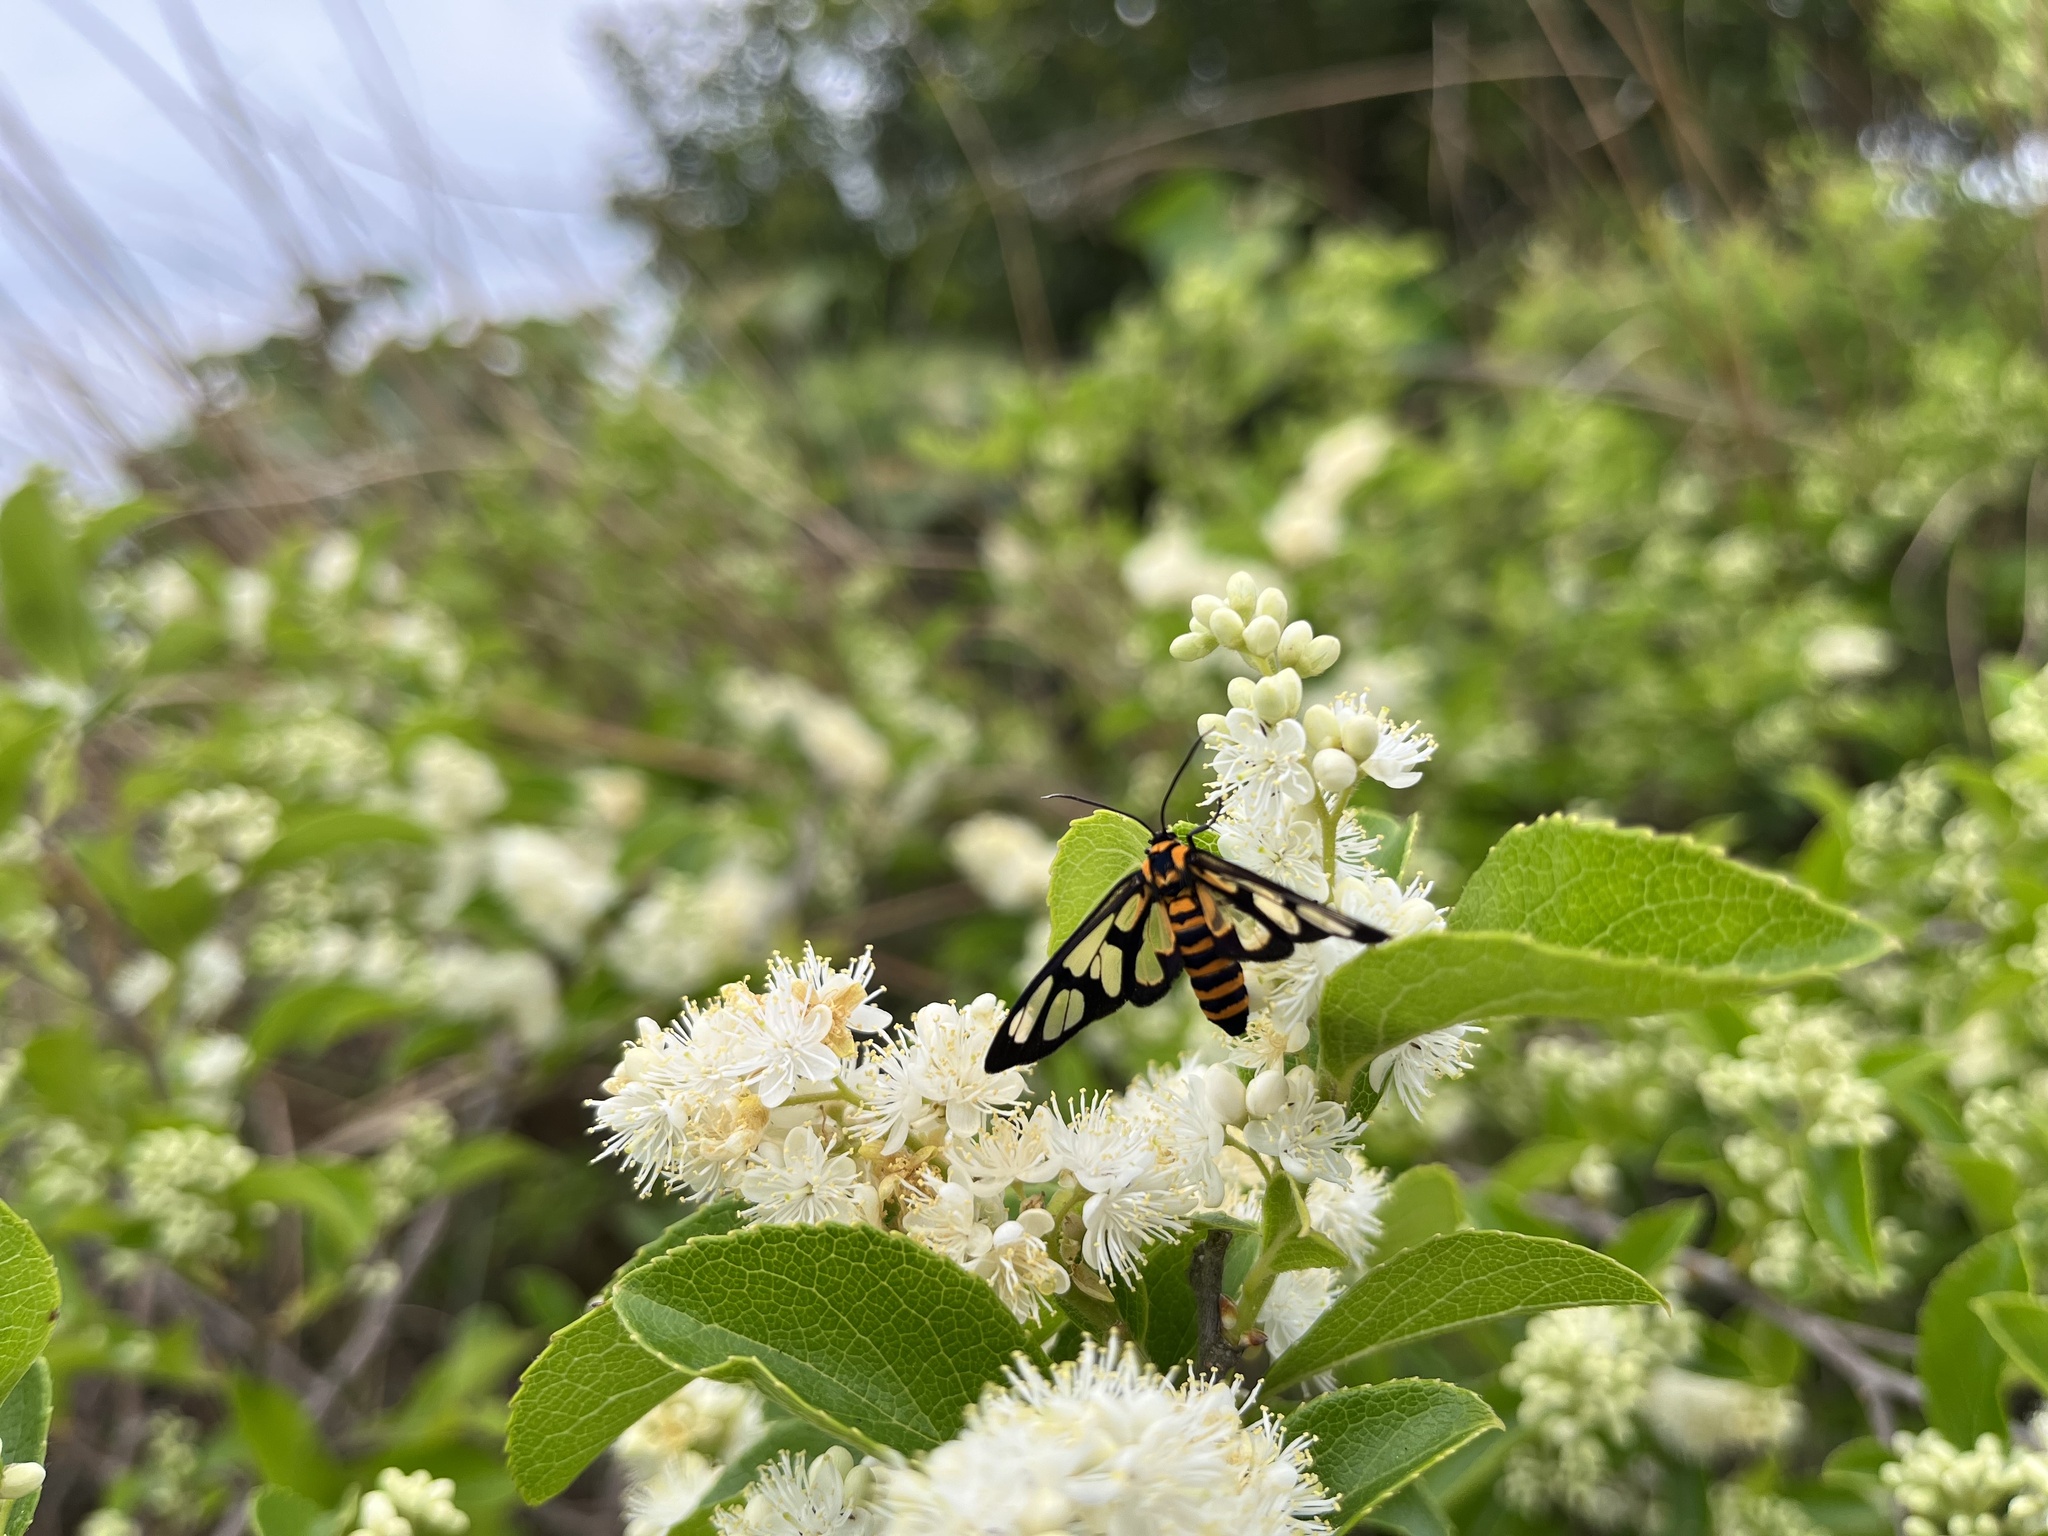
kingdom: Animalia
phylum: Arthropoda
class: Insecta
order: Lepidoptera
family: Erebidae
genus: Amata
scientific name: Amata persimilis
